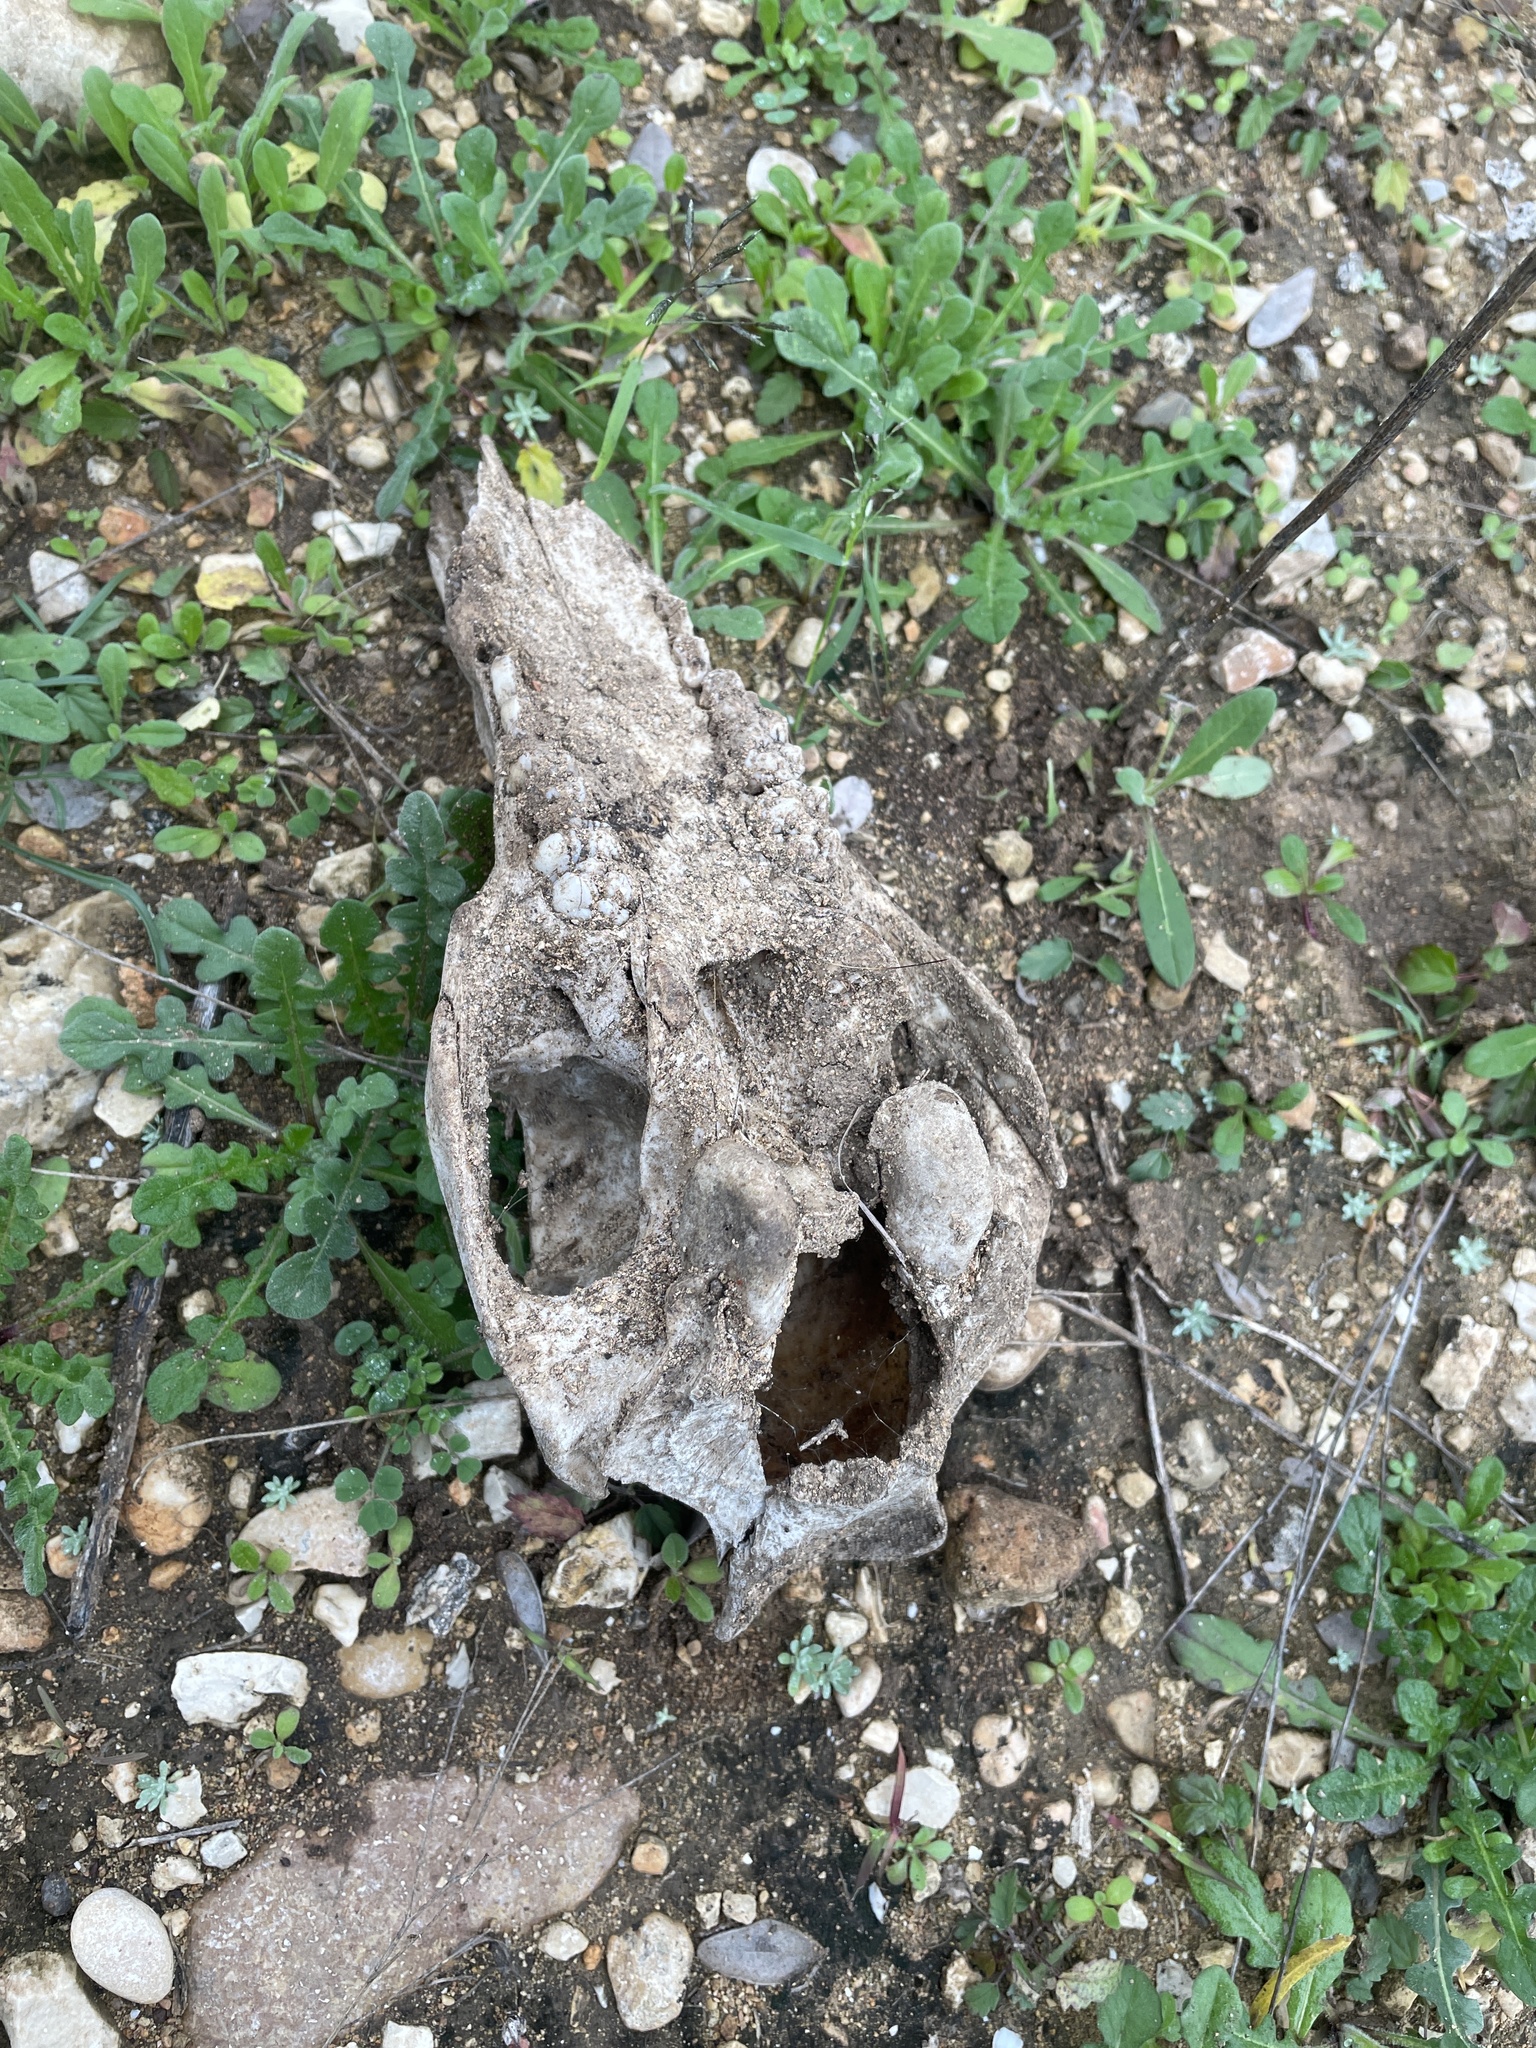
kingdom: Animalia
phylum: Chordata
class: Mammalia
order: Artiodactyla
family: Suidae
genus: Sus
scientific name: Sus scrofa
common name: Wild boar
